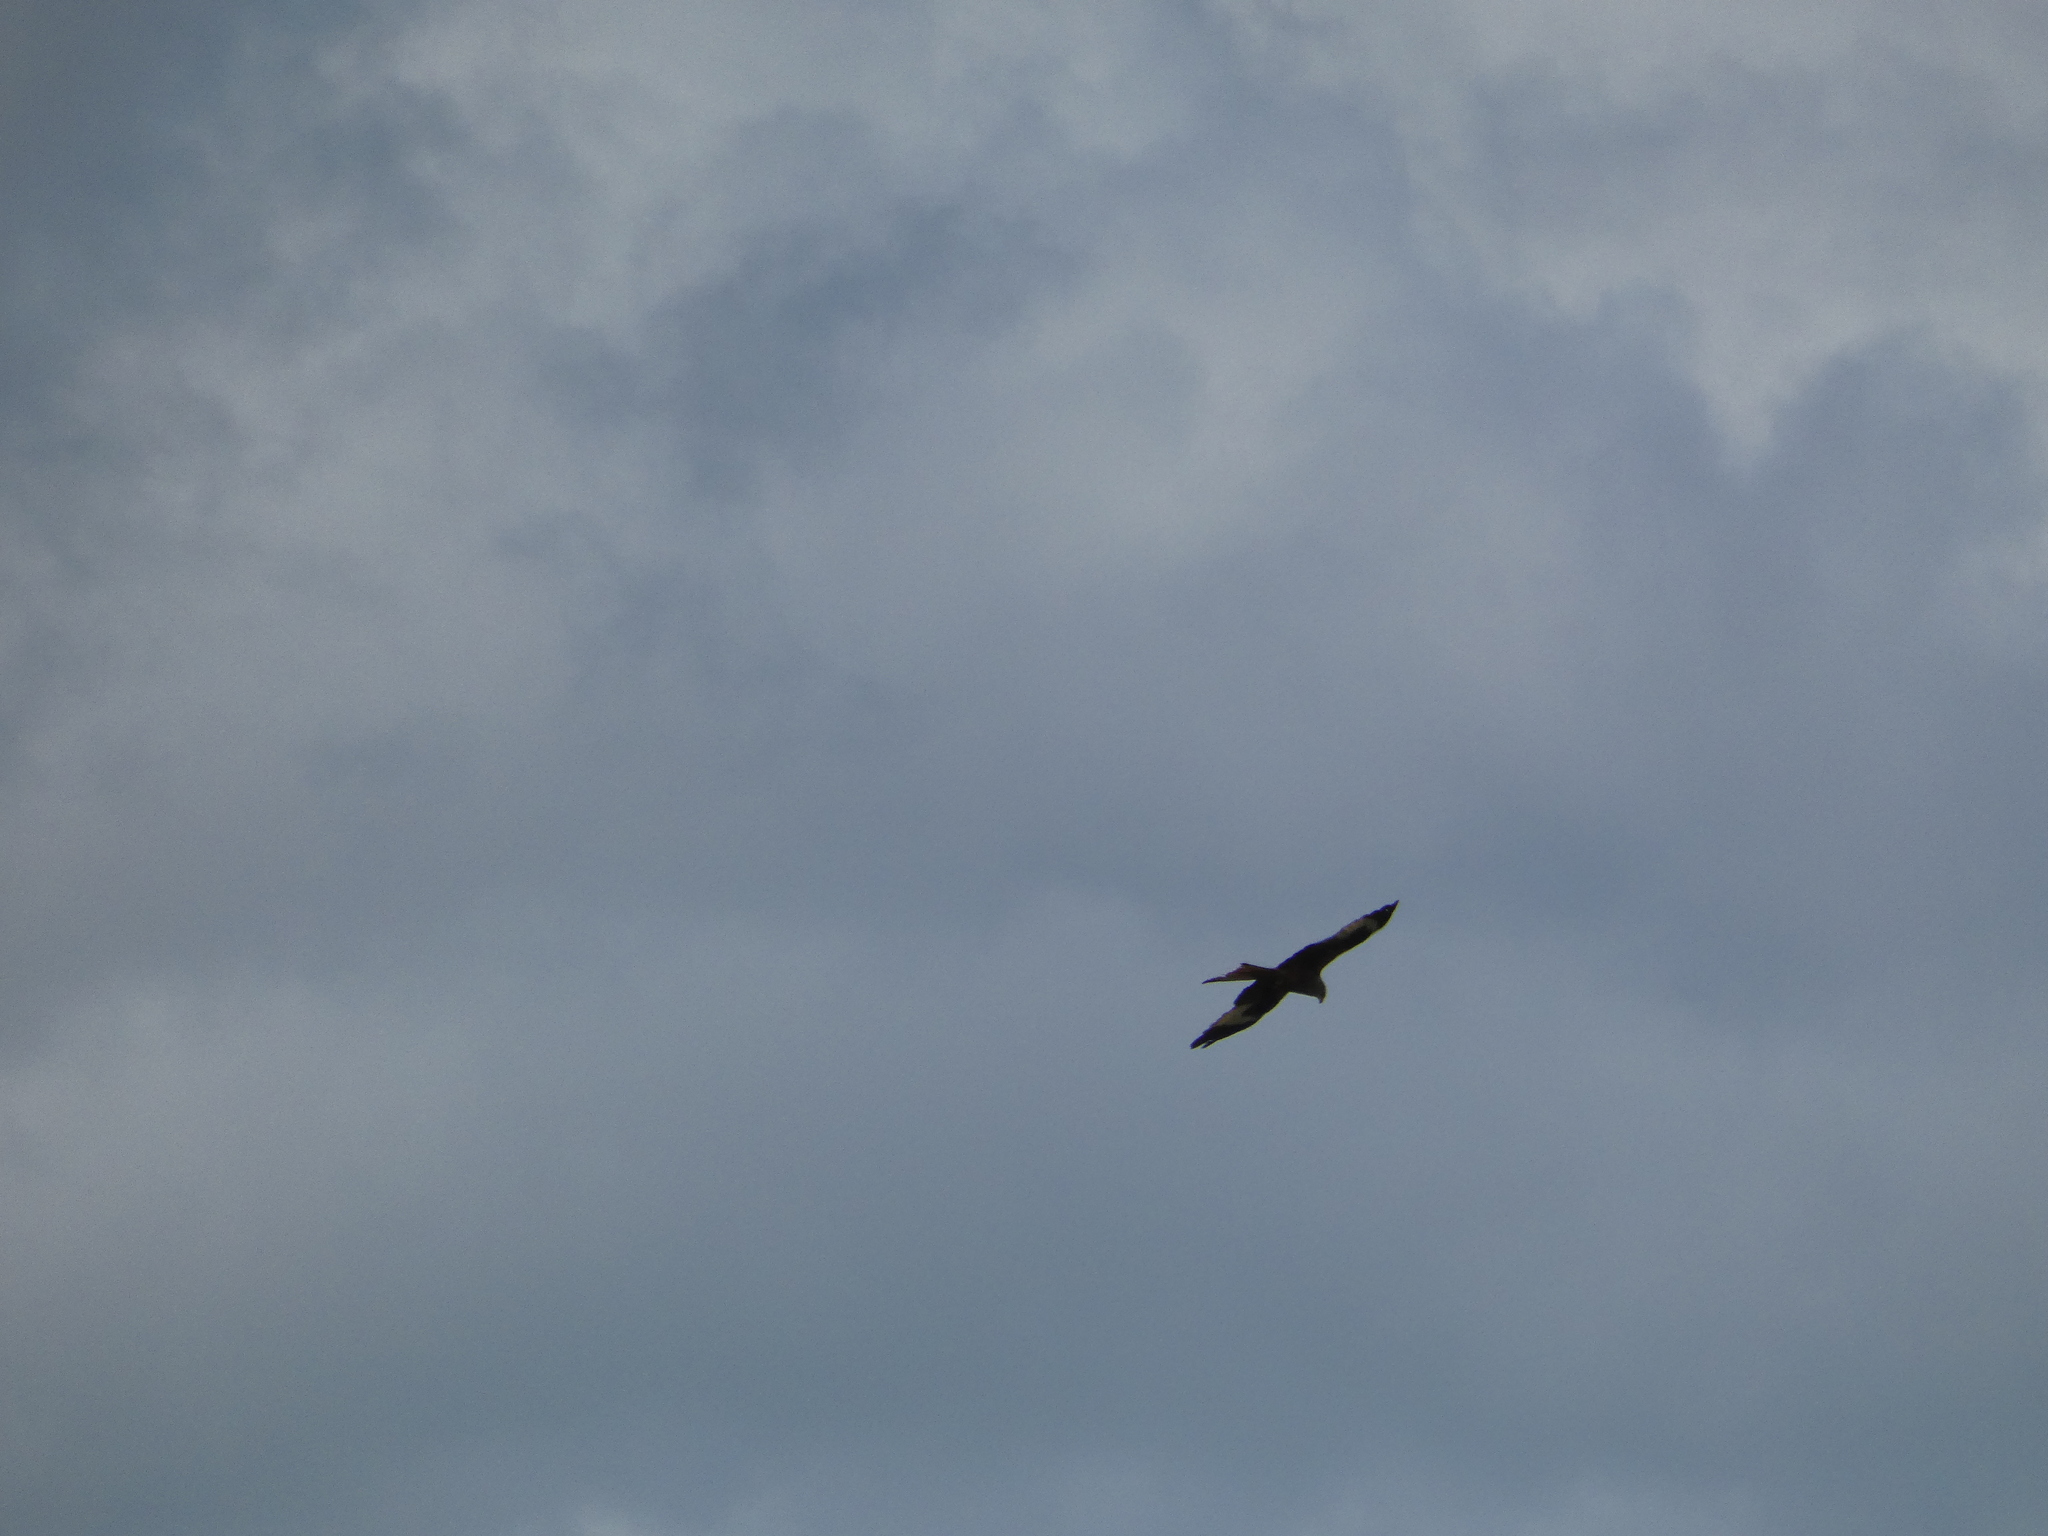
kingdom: Animalia
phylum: Chordata
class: Aves
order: Accipitriformes
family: Accipitridae
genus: Milvus
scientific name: Milvus milvus
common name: Red kite
